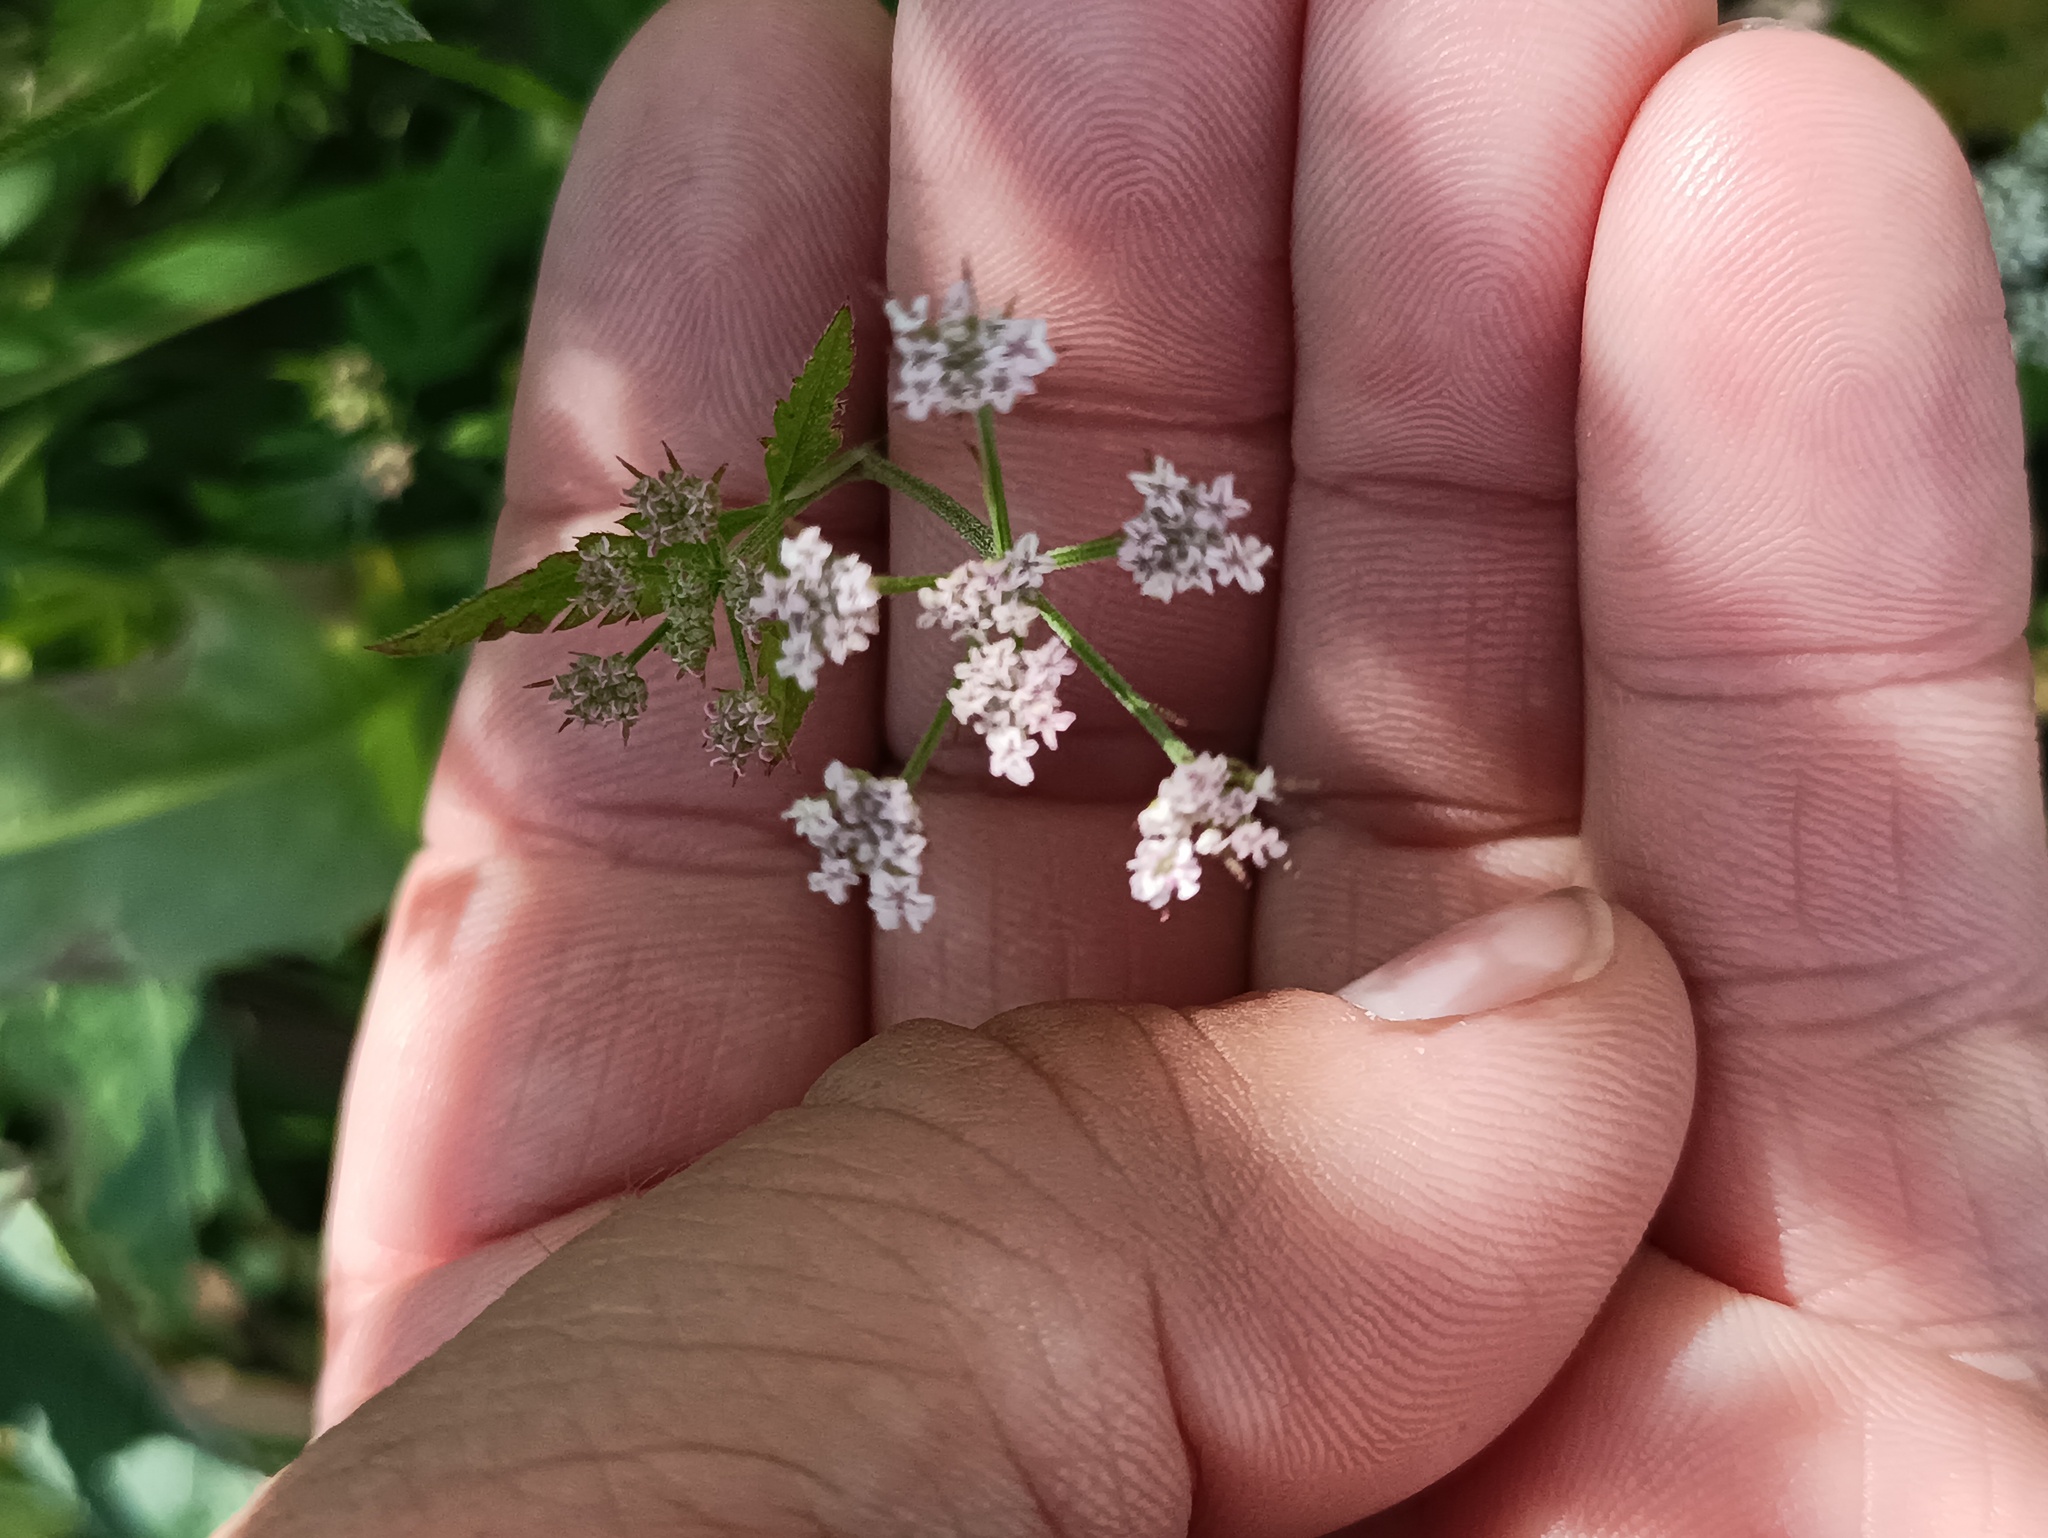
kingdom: Plantae
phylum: Tracheophyta
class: Magnoliopsida
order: Apiales
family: Apiaceae
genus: Torilis
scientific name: Torilis japonica
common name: Upright hedge-parsley
